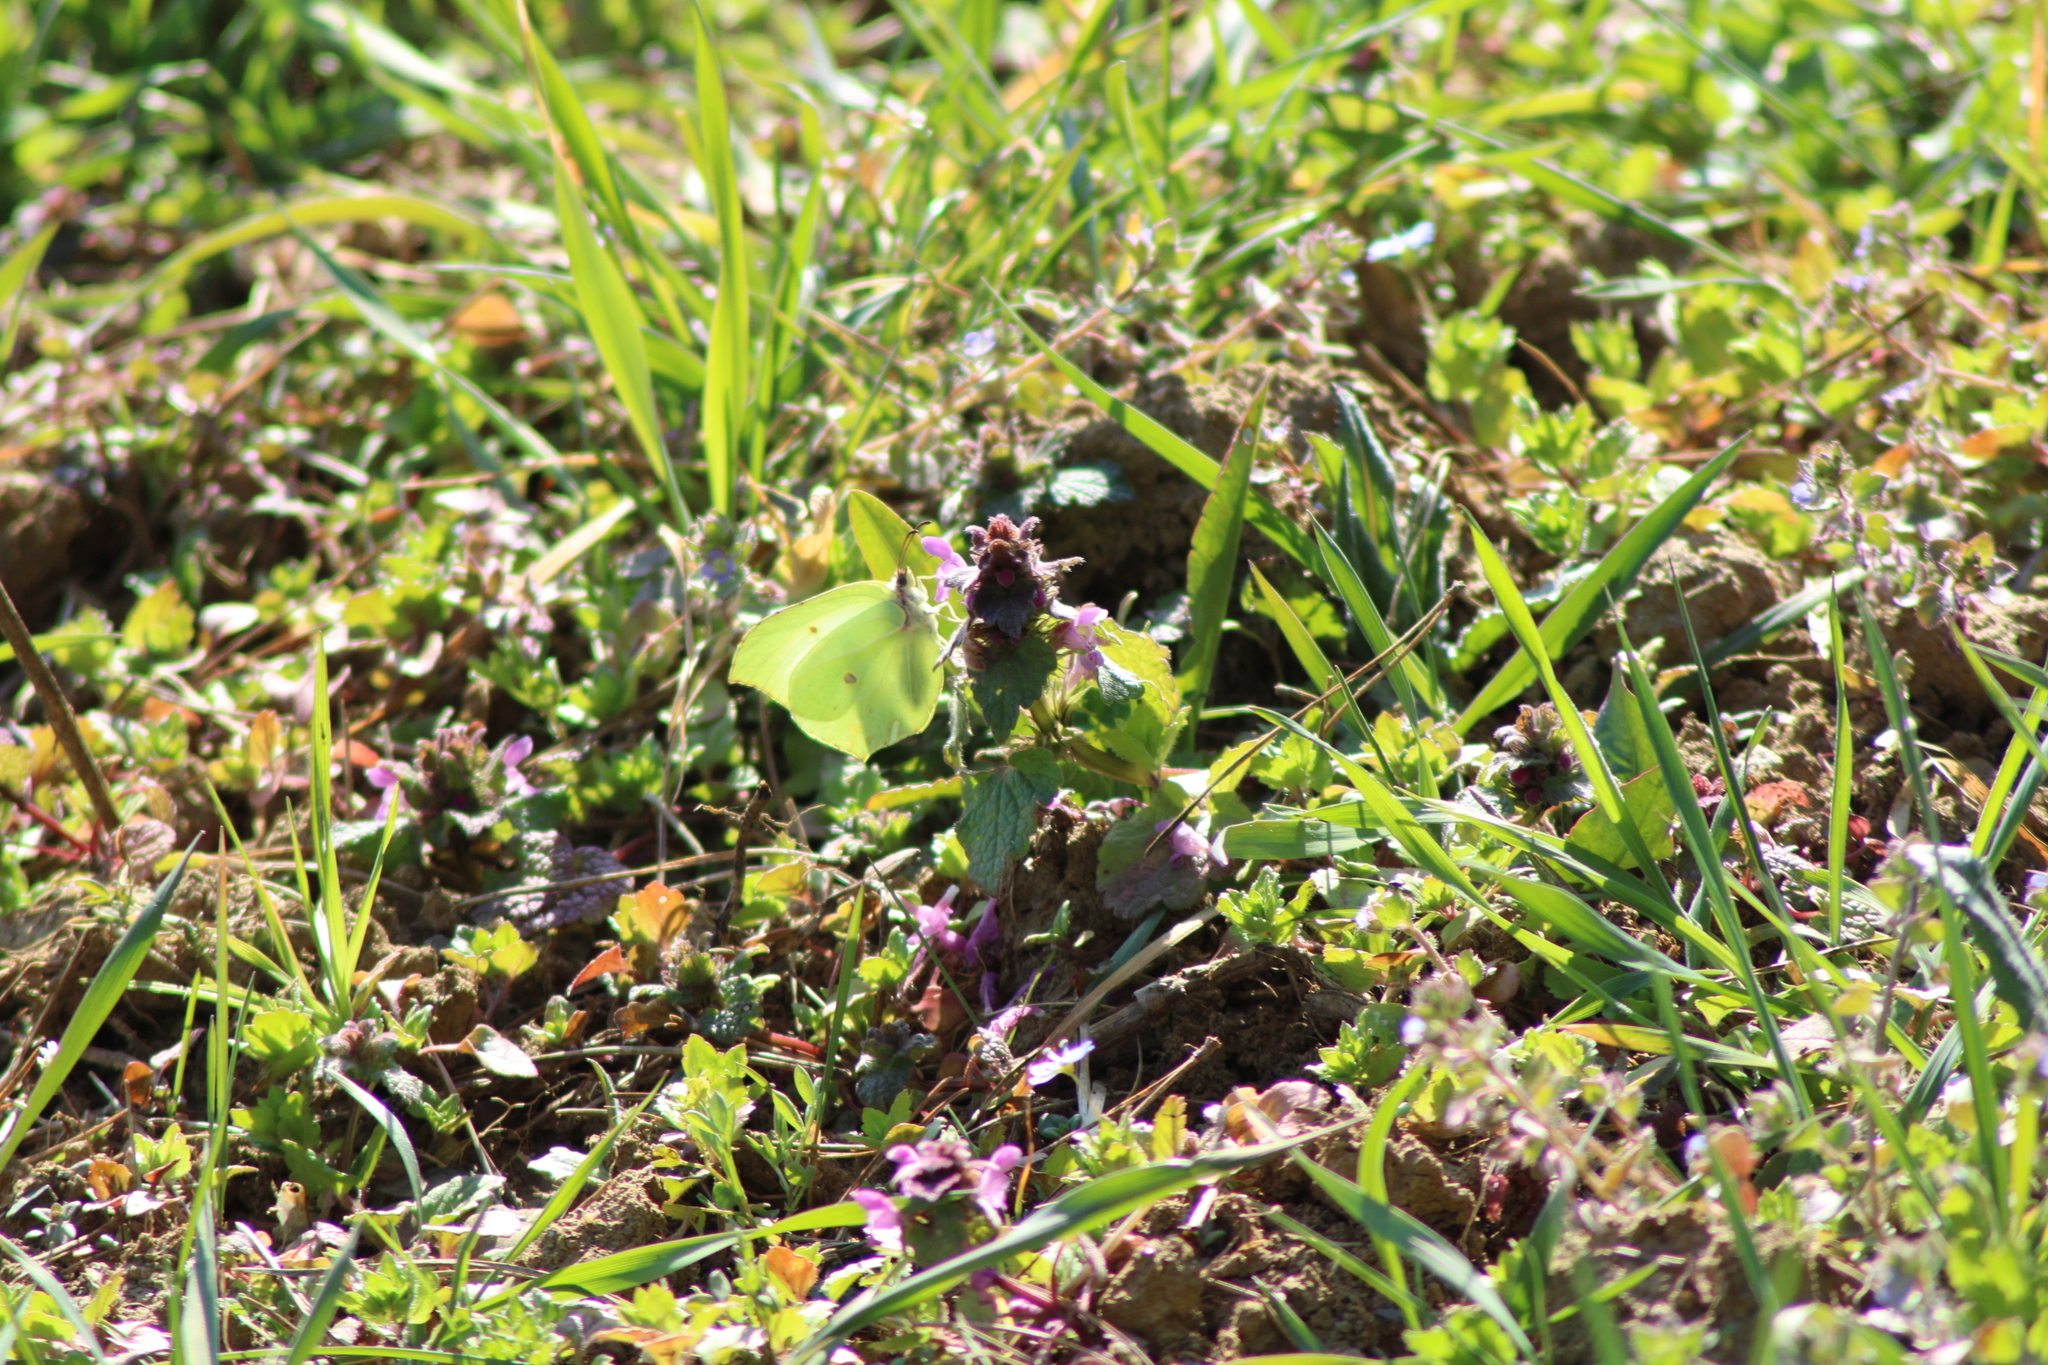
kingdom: Animalia
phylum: Arthropoda
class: Insecta
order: Lepidoptera
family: Pieridae
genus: Gonepteryx
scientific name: Gonepteryx rhamni
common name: Brimstone
